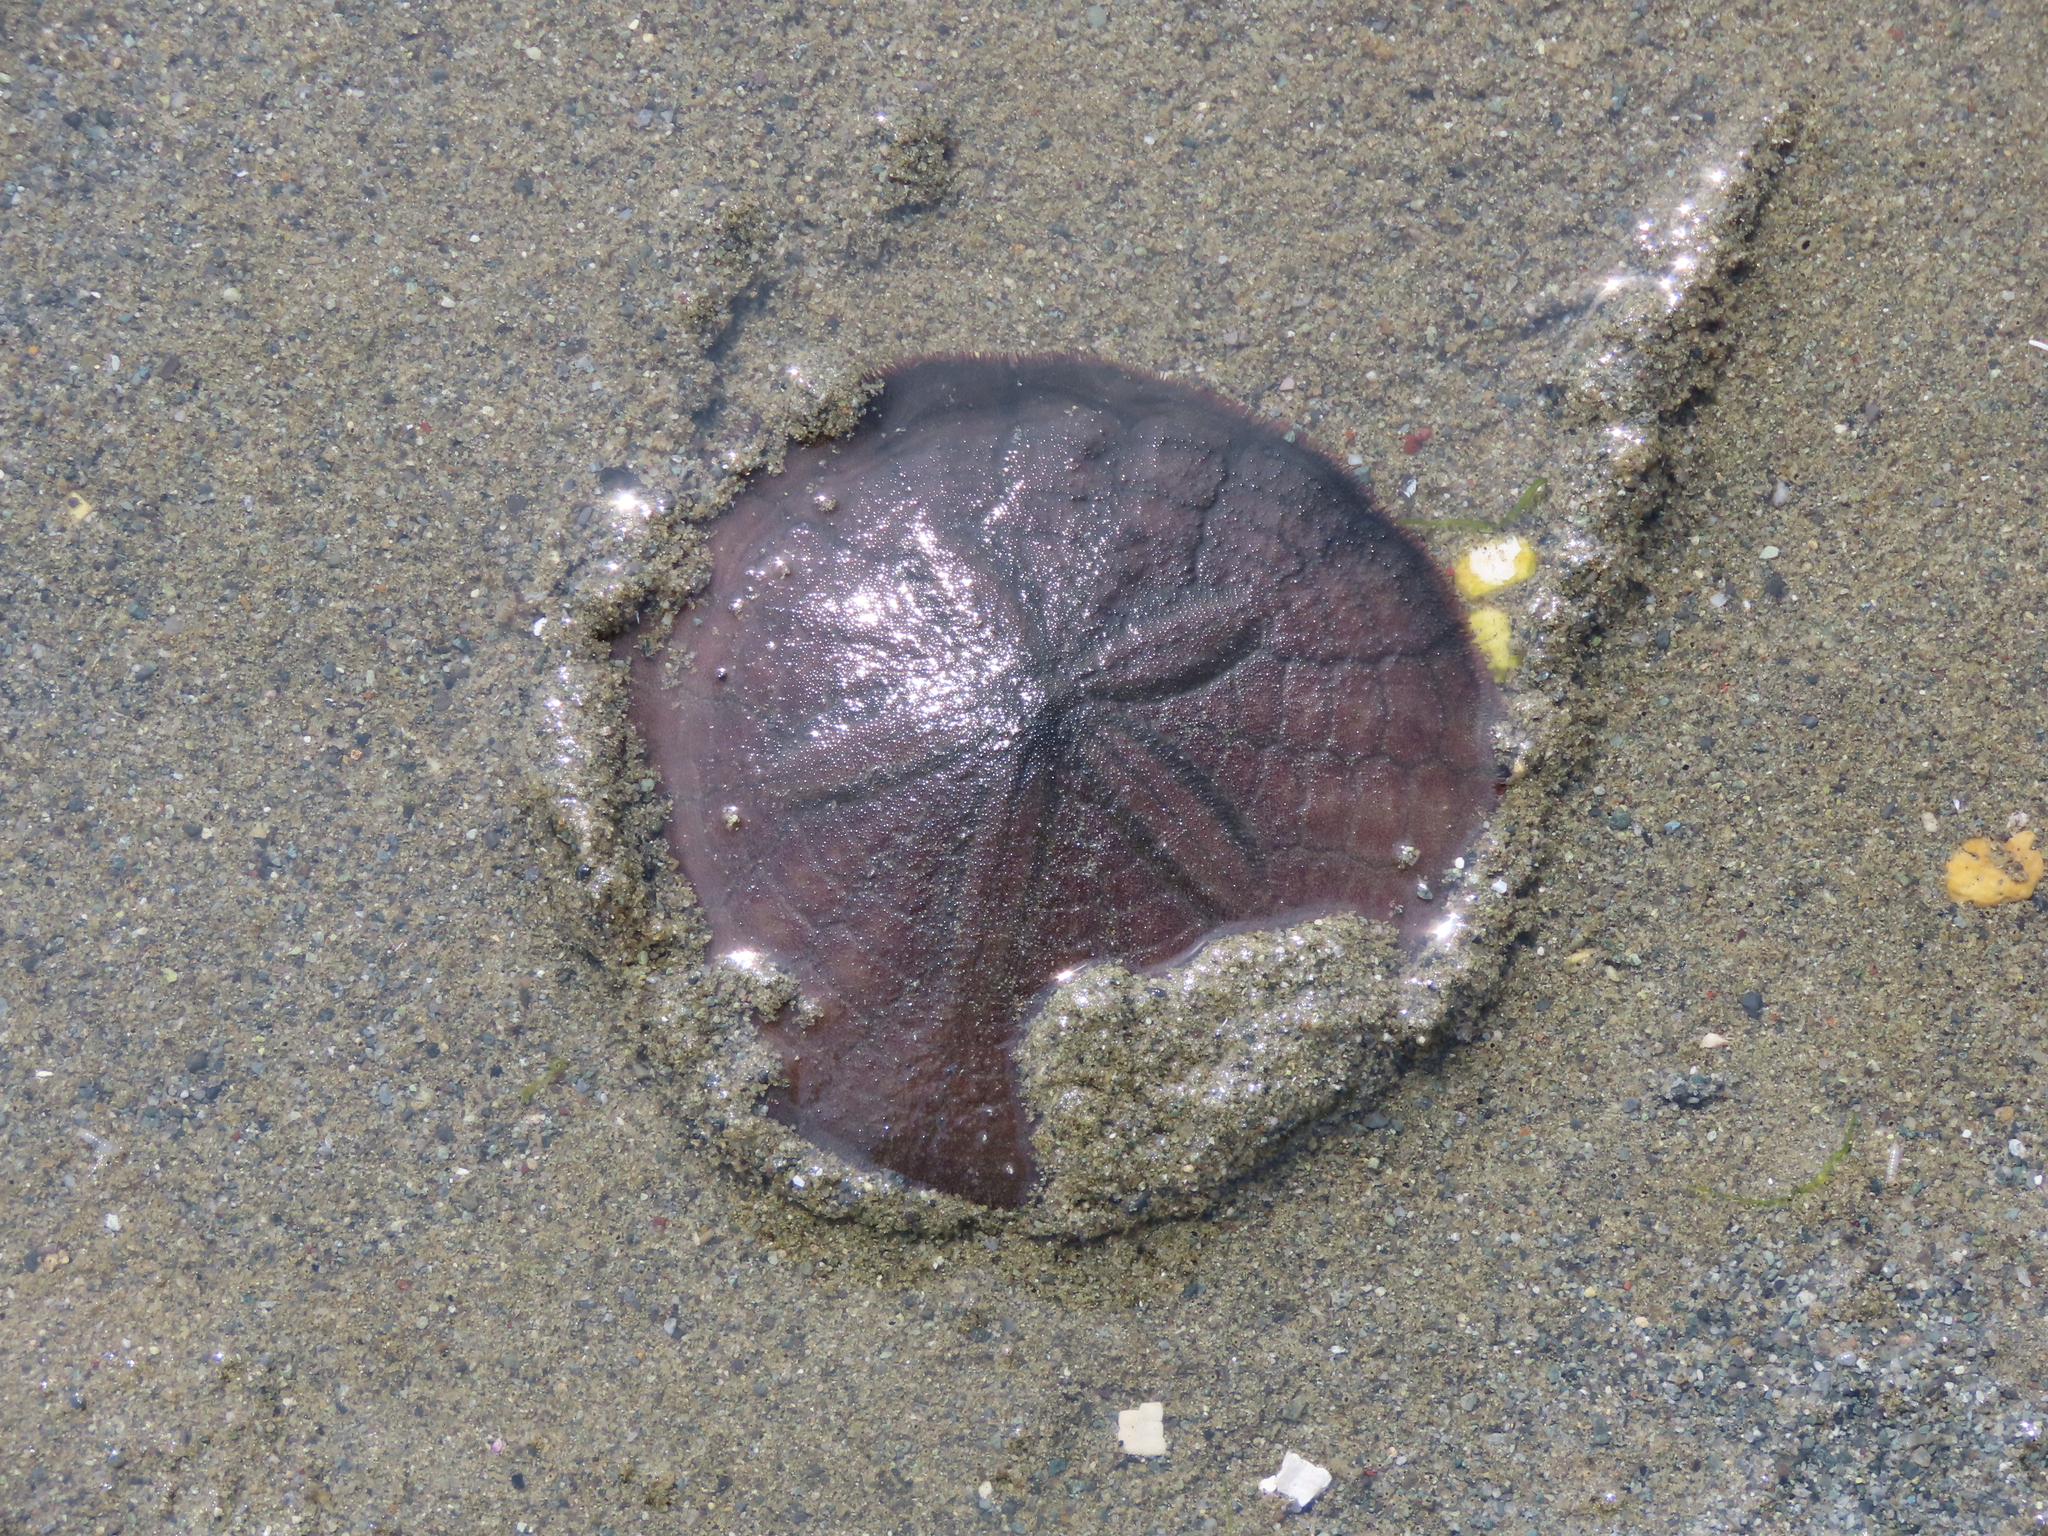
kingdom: Animalia
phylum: Echinodermata
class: Echinoidea
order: Echinolampadacea
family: Dendrasteridae
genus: Dendraster
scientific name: Dendraster excentricus
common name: Eccentric sand dollar sea urchin
